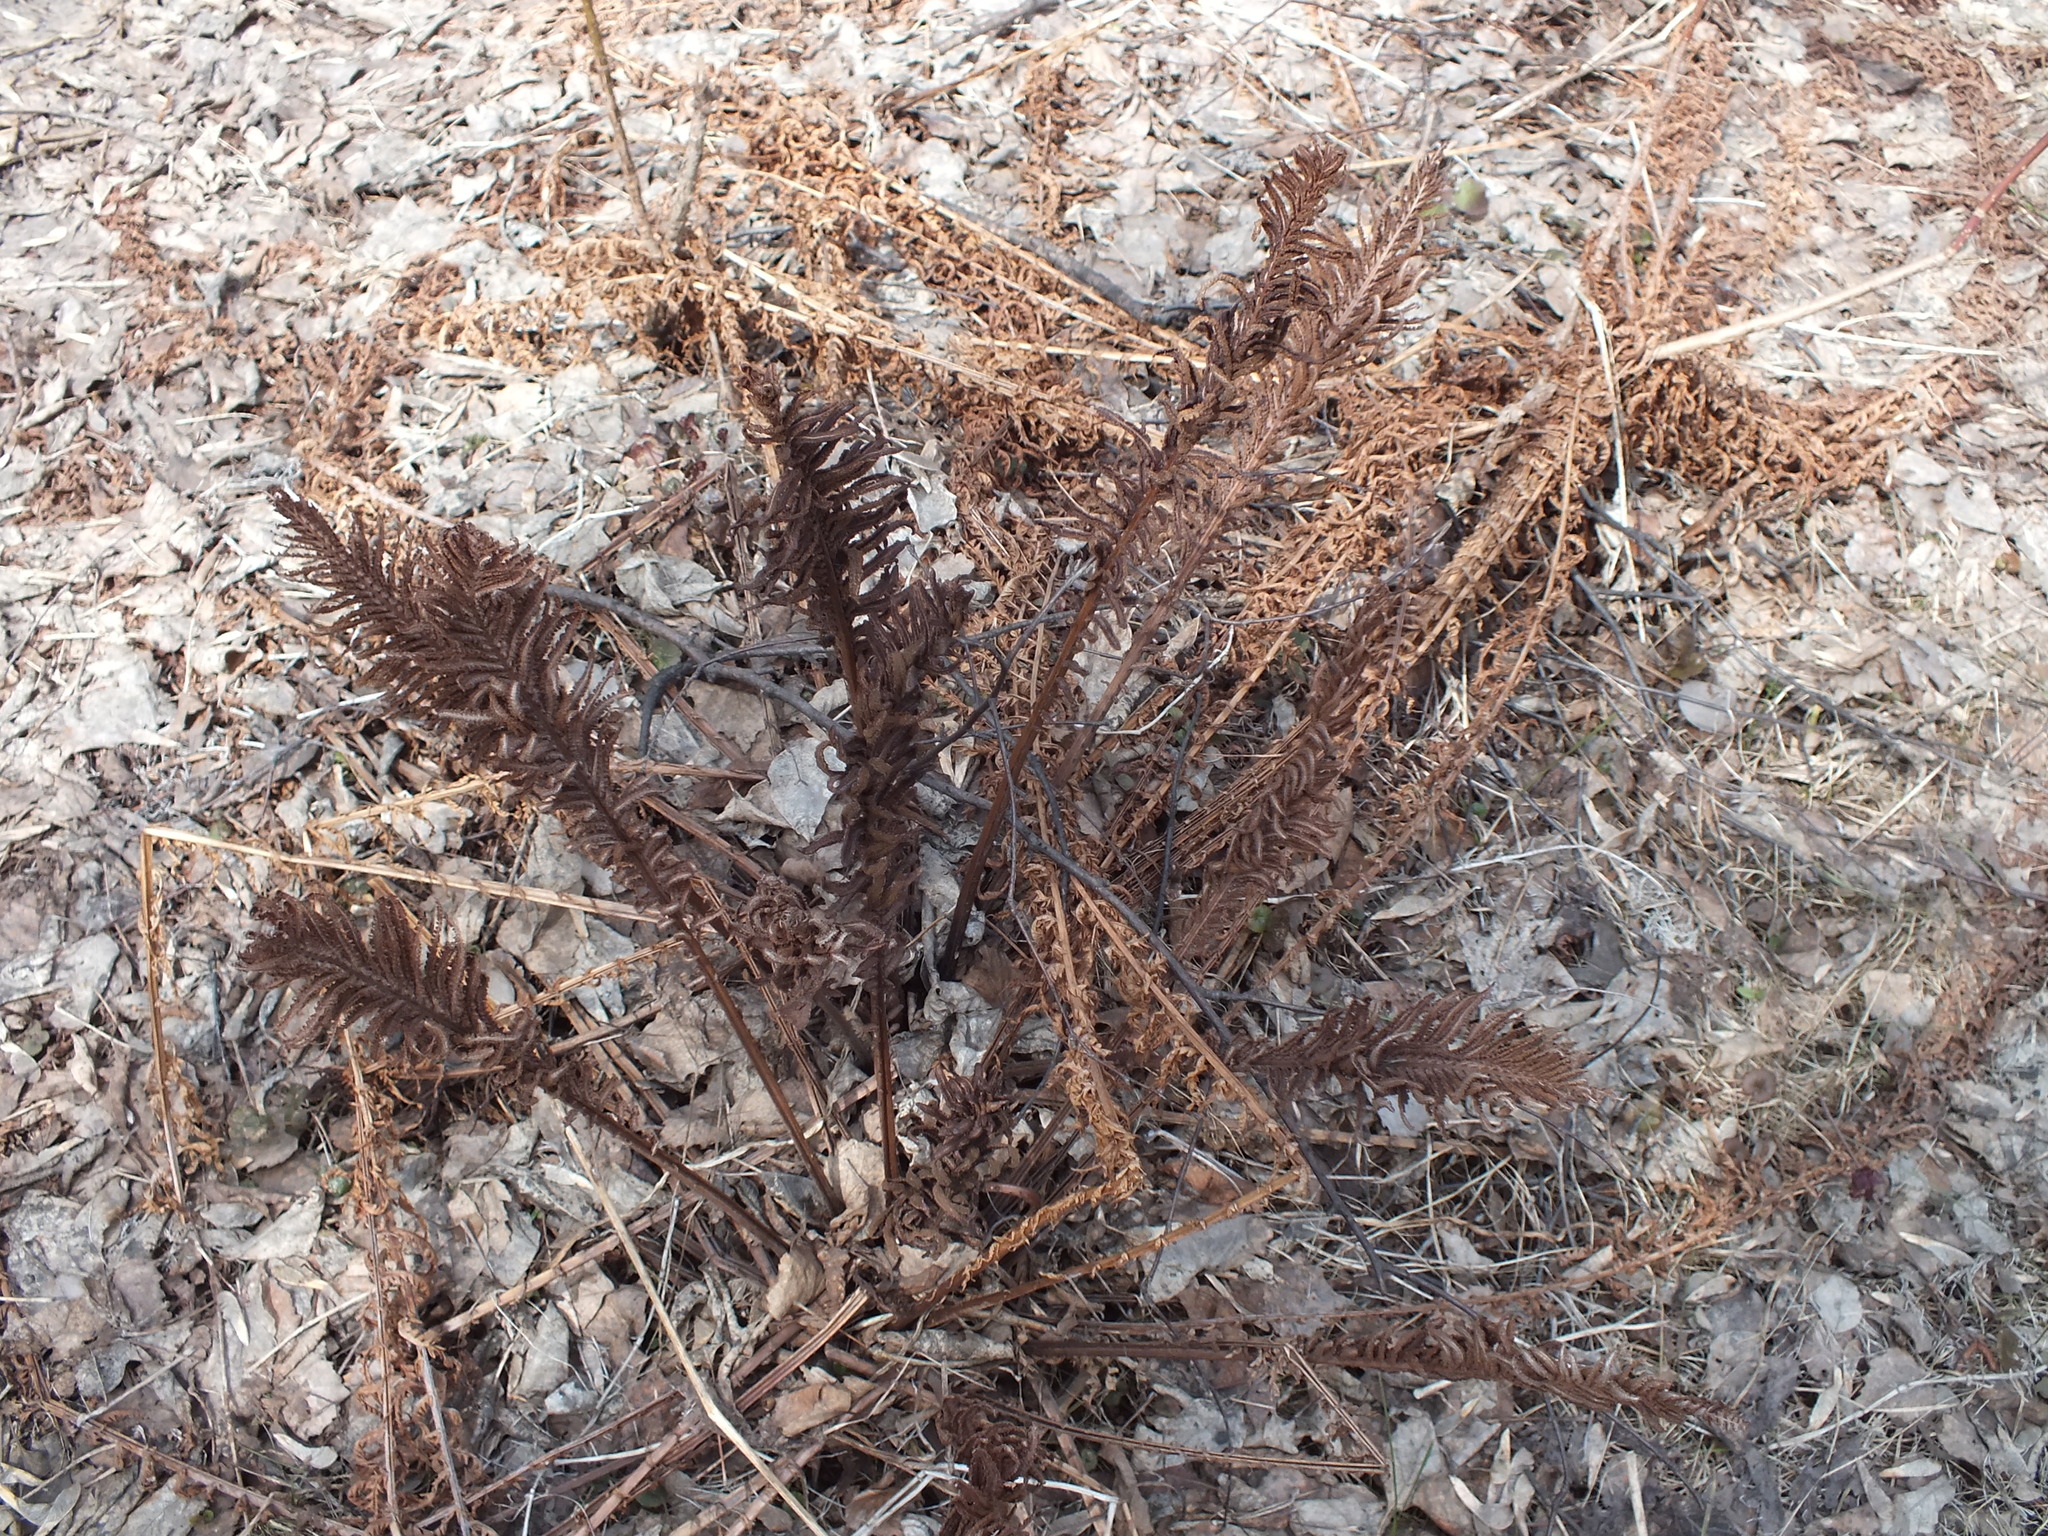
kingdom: Plantae
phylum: Tracheophyta
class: Polypodiopsida
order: Polypodiales
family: Onocleaceae
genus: Matteuccia
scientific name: Matteuccia struthiopteris
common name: Ostrich fern
